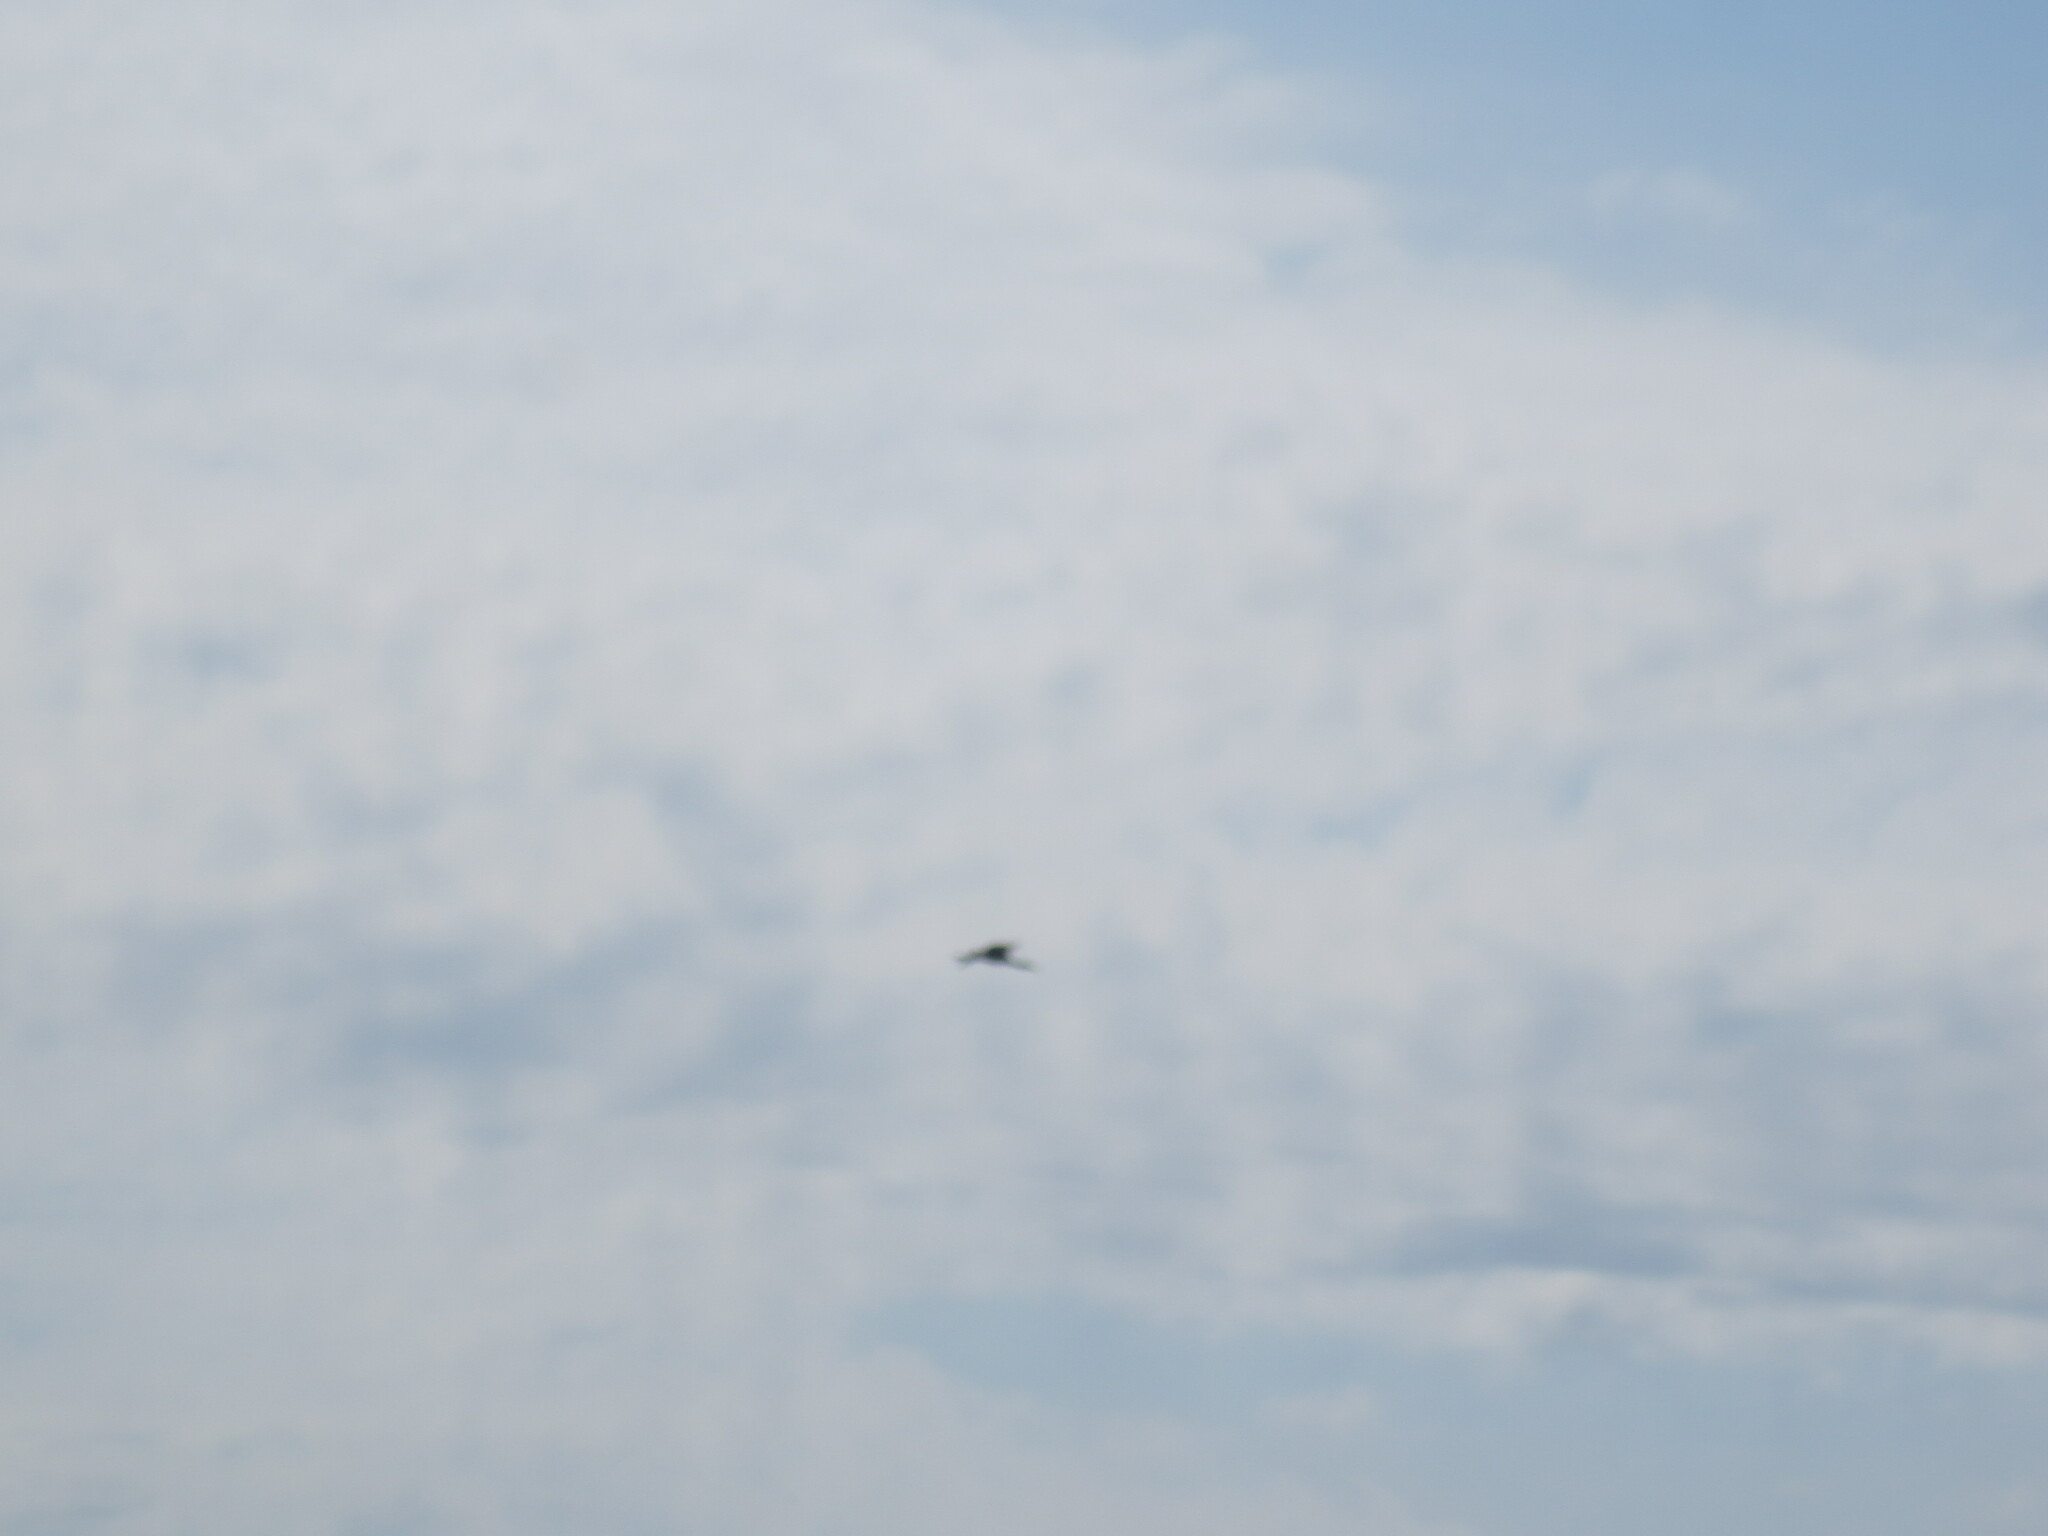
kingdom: Animalia
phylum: Chordata
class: Aves
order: Ciconiiformes
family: Ciconiidae
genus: Mycteria
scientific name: Mycteria americana
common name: Wood stork
